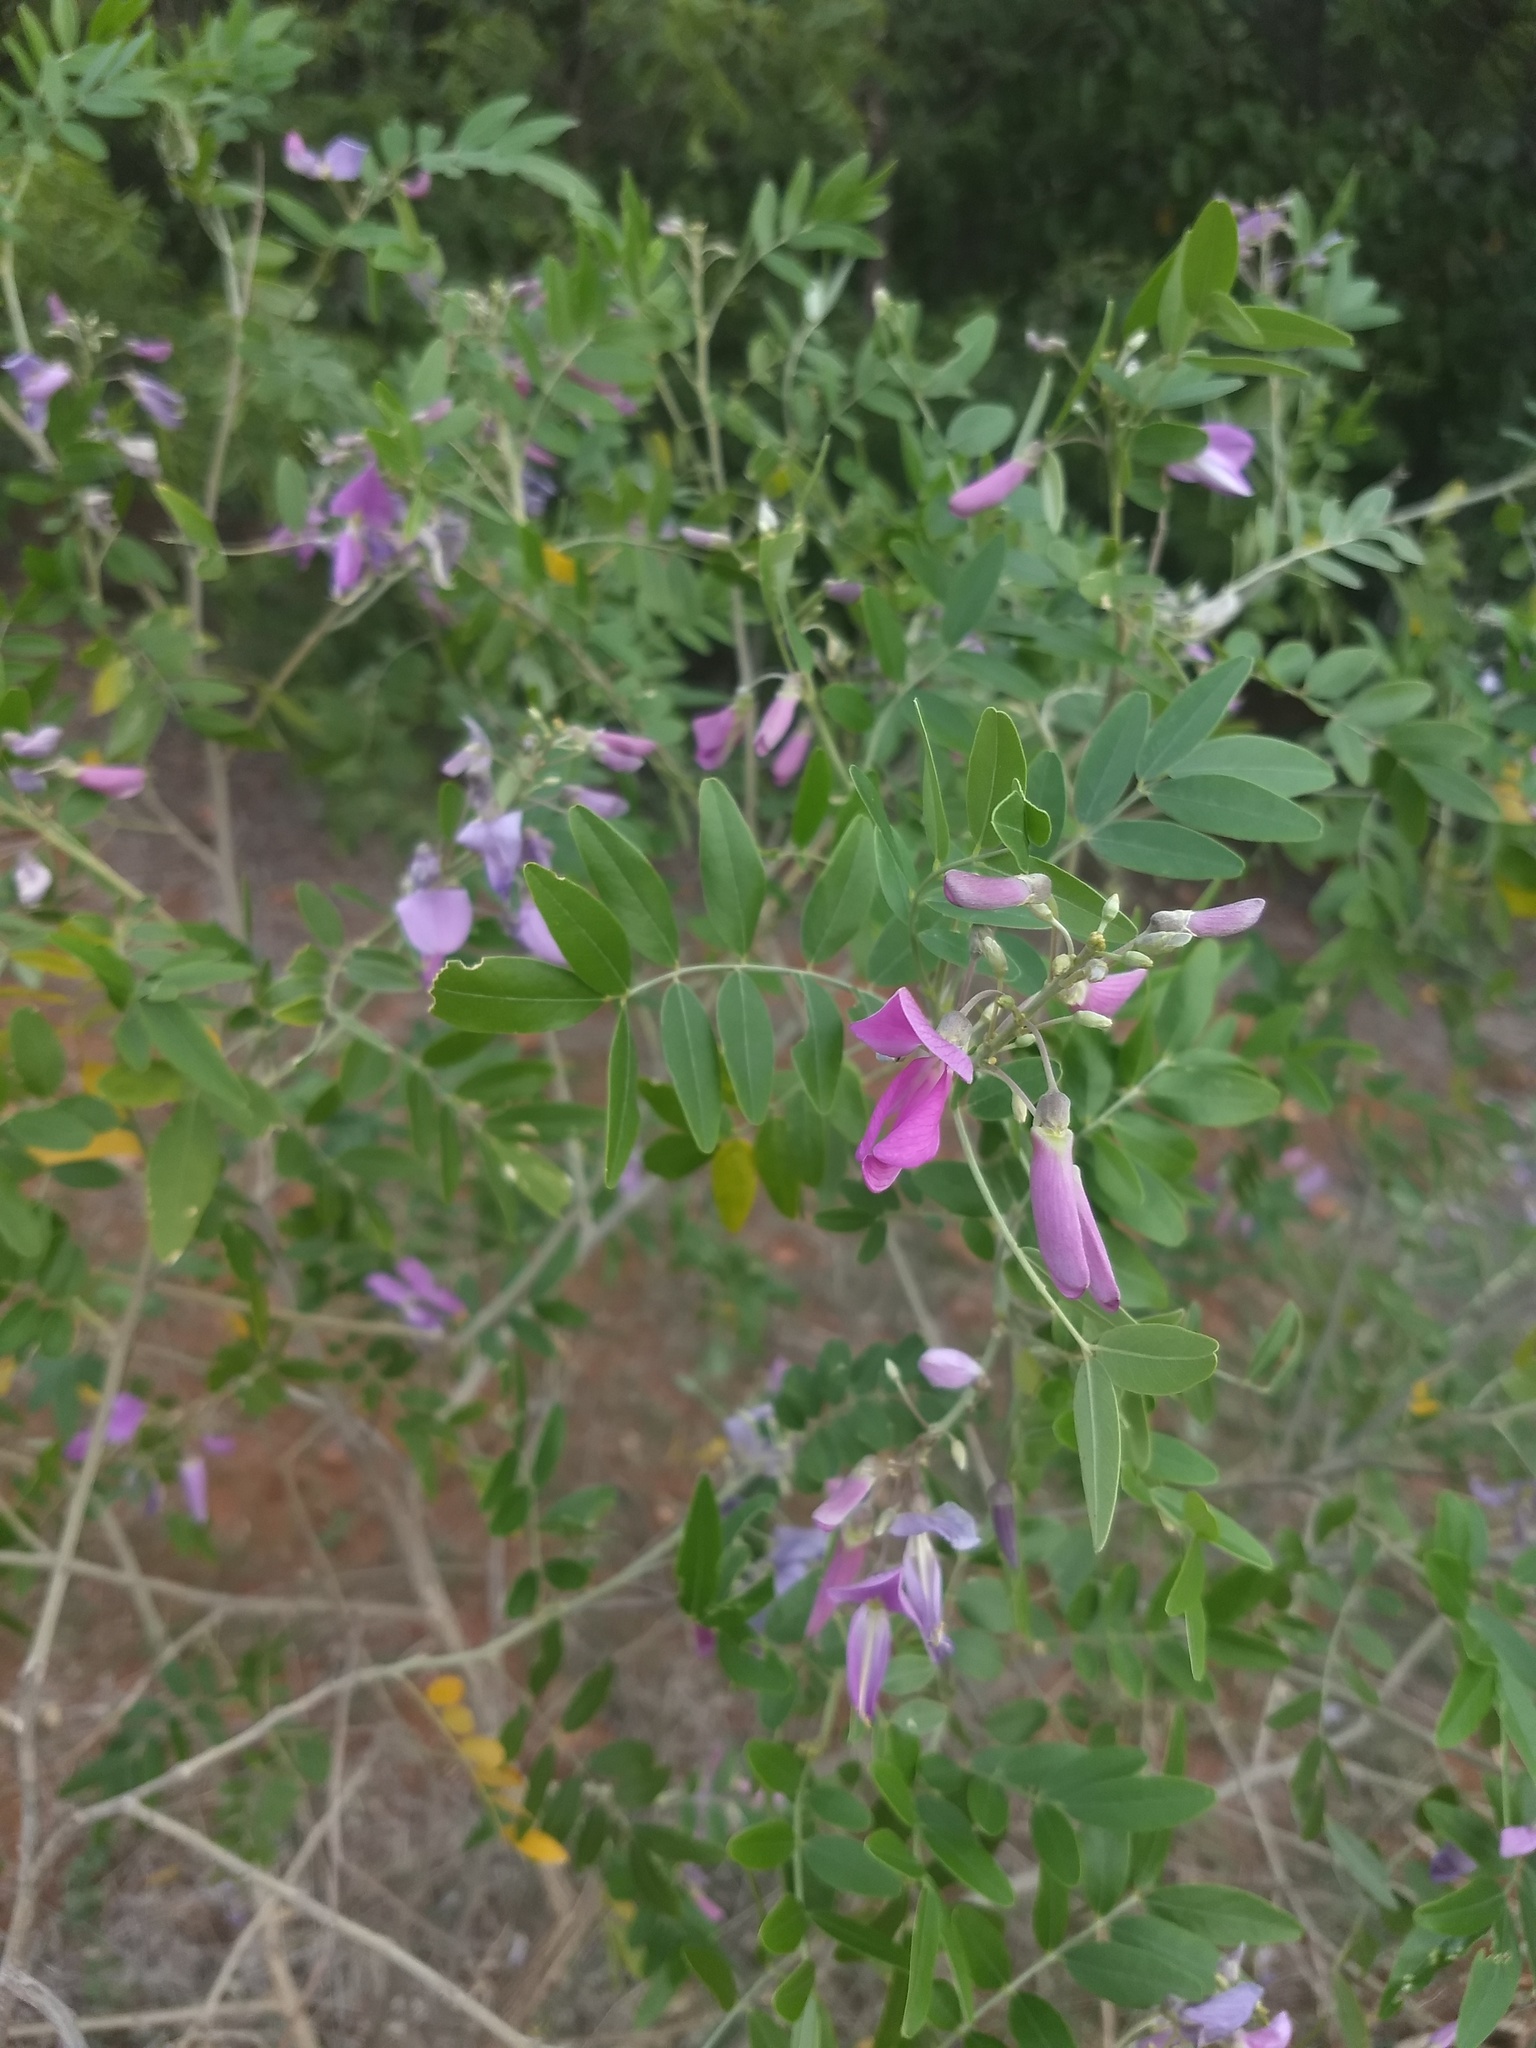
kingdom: Plantae
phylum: Tracheophyta
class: Magnoliopsida
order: Fabales
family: Fabaceae
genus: Mundulea
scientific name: Mundulea sericea
